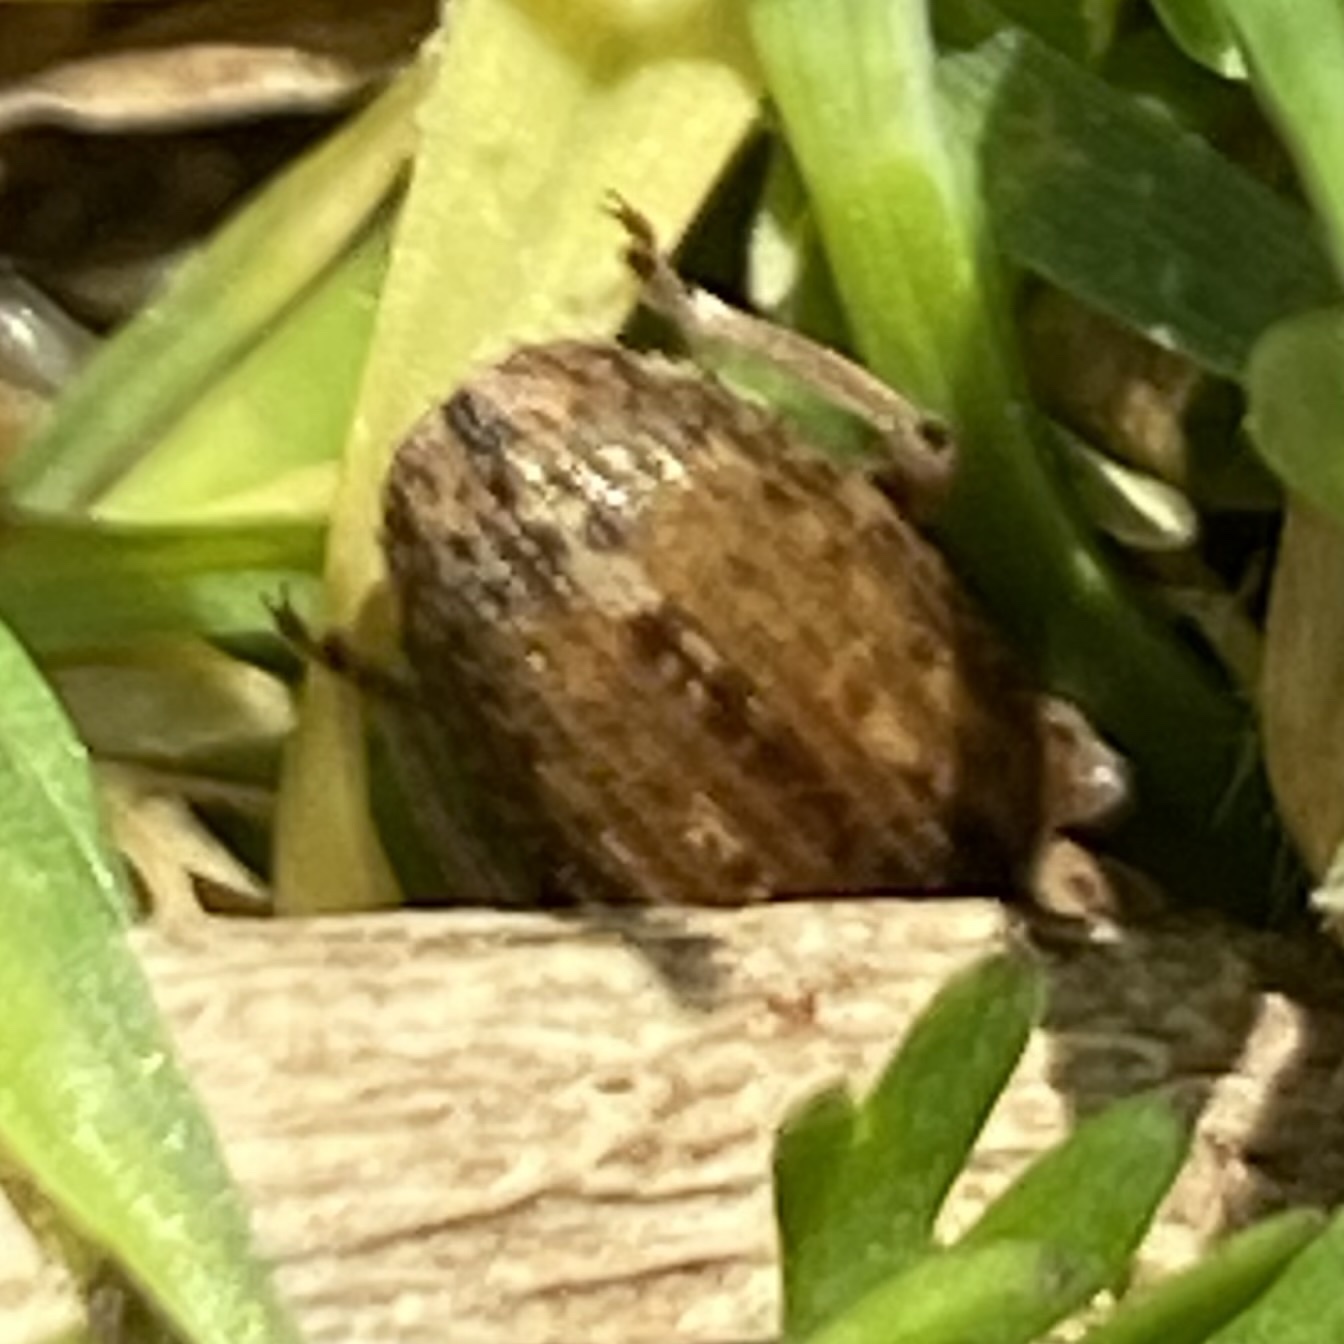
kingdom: Animalia
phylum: Arthropoda
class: Insecta
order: Coleoptera
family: Curculionidae
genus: Hypera
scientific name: Hypera postica
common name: Weevil
